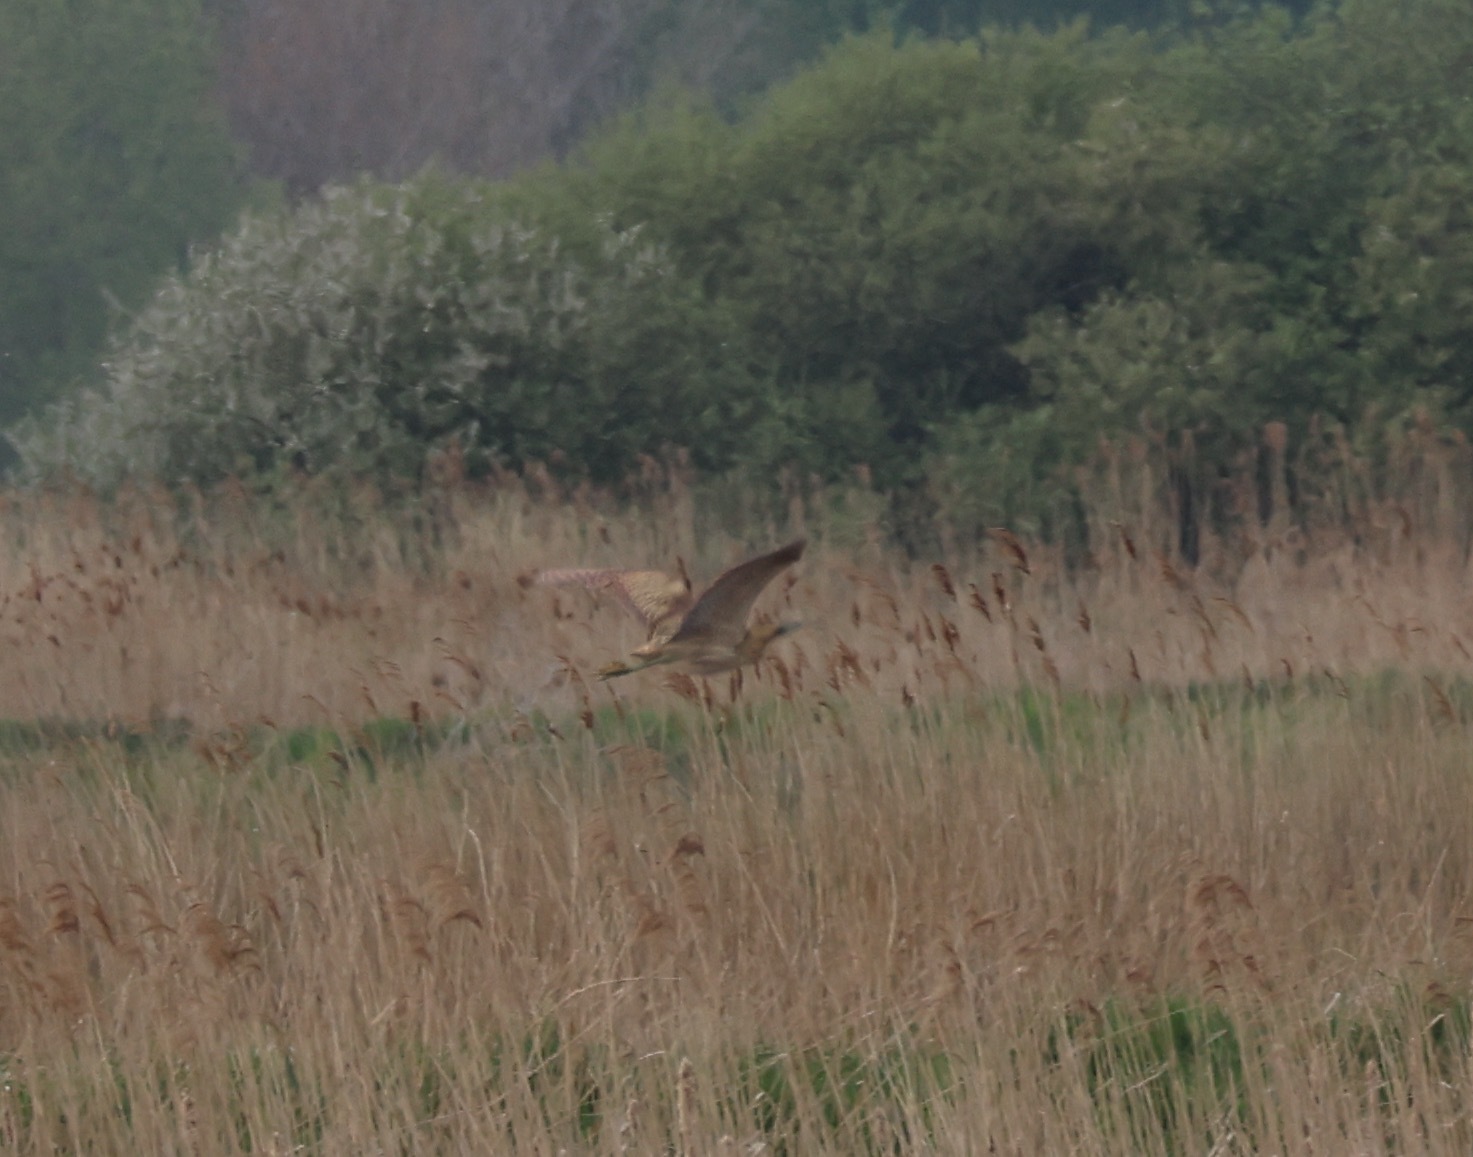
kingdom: Animalia
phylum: Chordata
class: Aves
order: Pelecaniformes
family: Ardeidae
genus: Botaurus
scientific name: Botaurus stellaris
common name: Eurasian bittern
